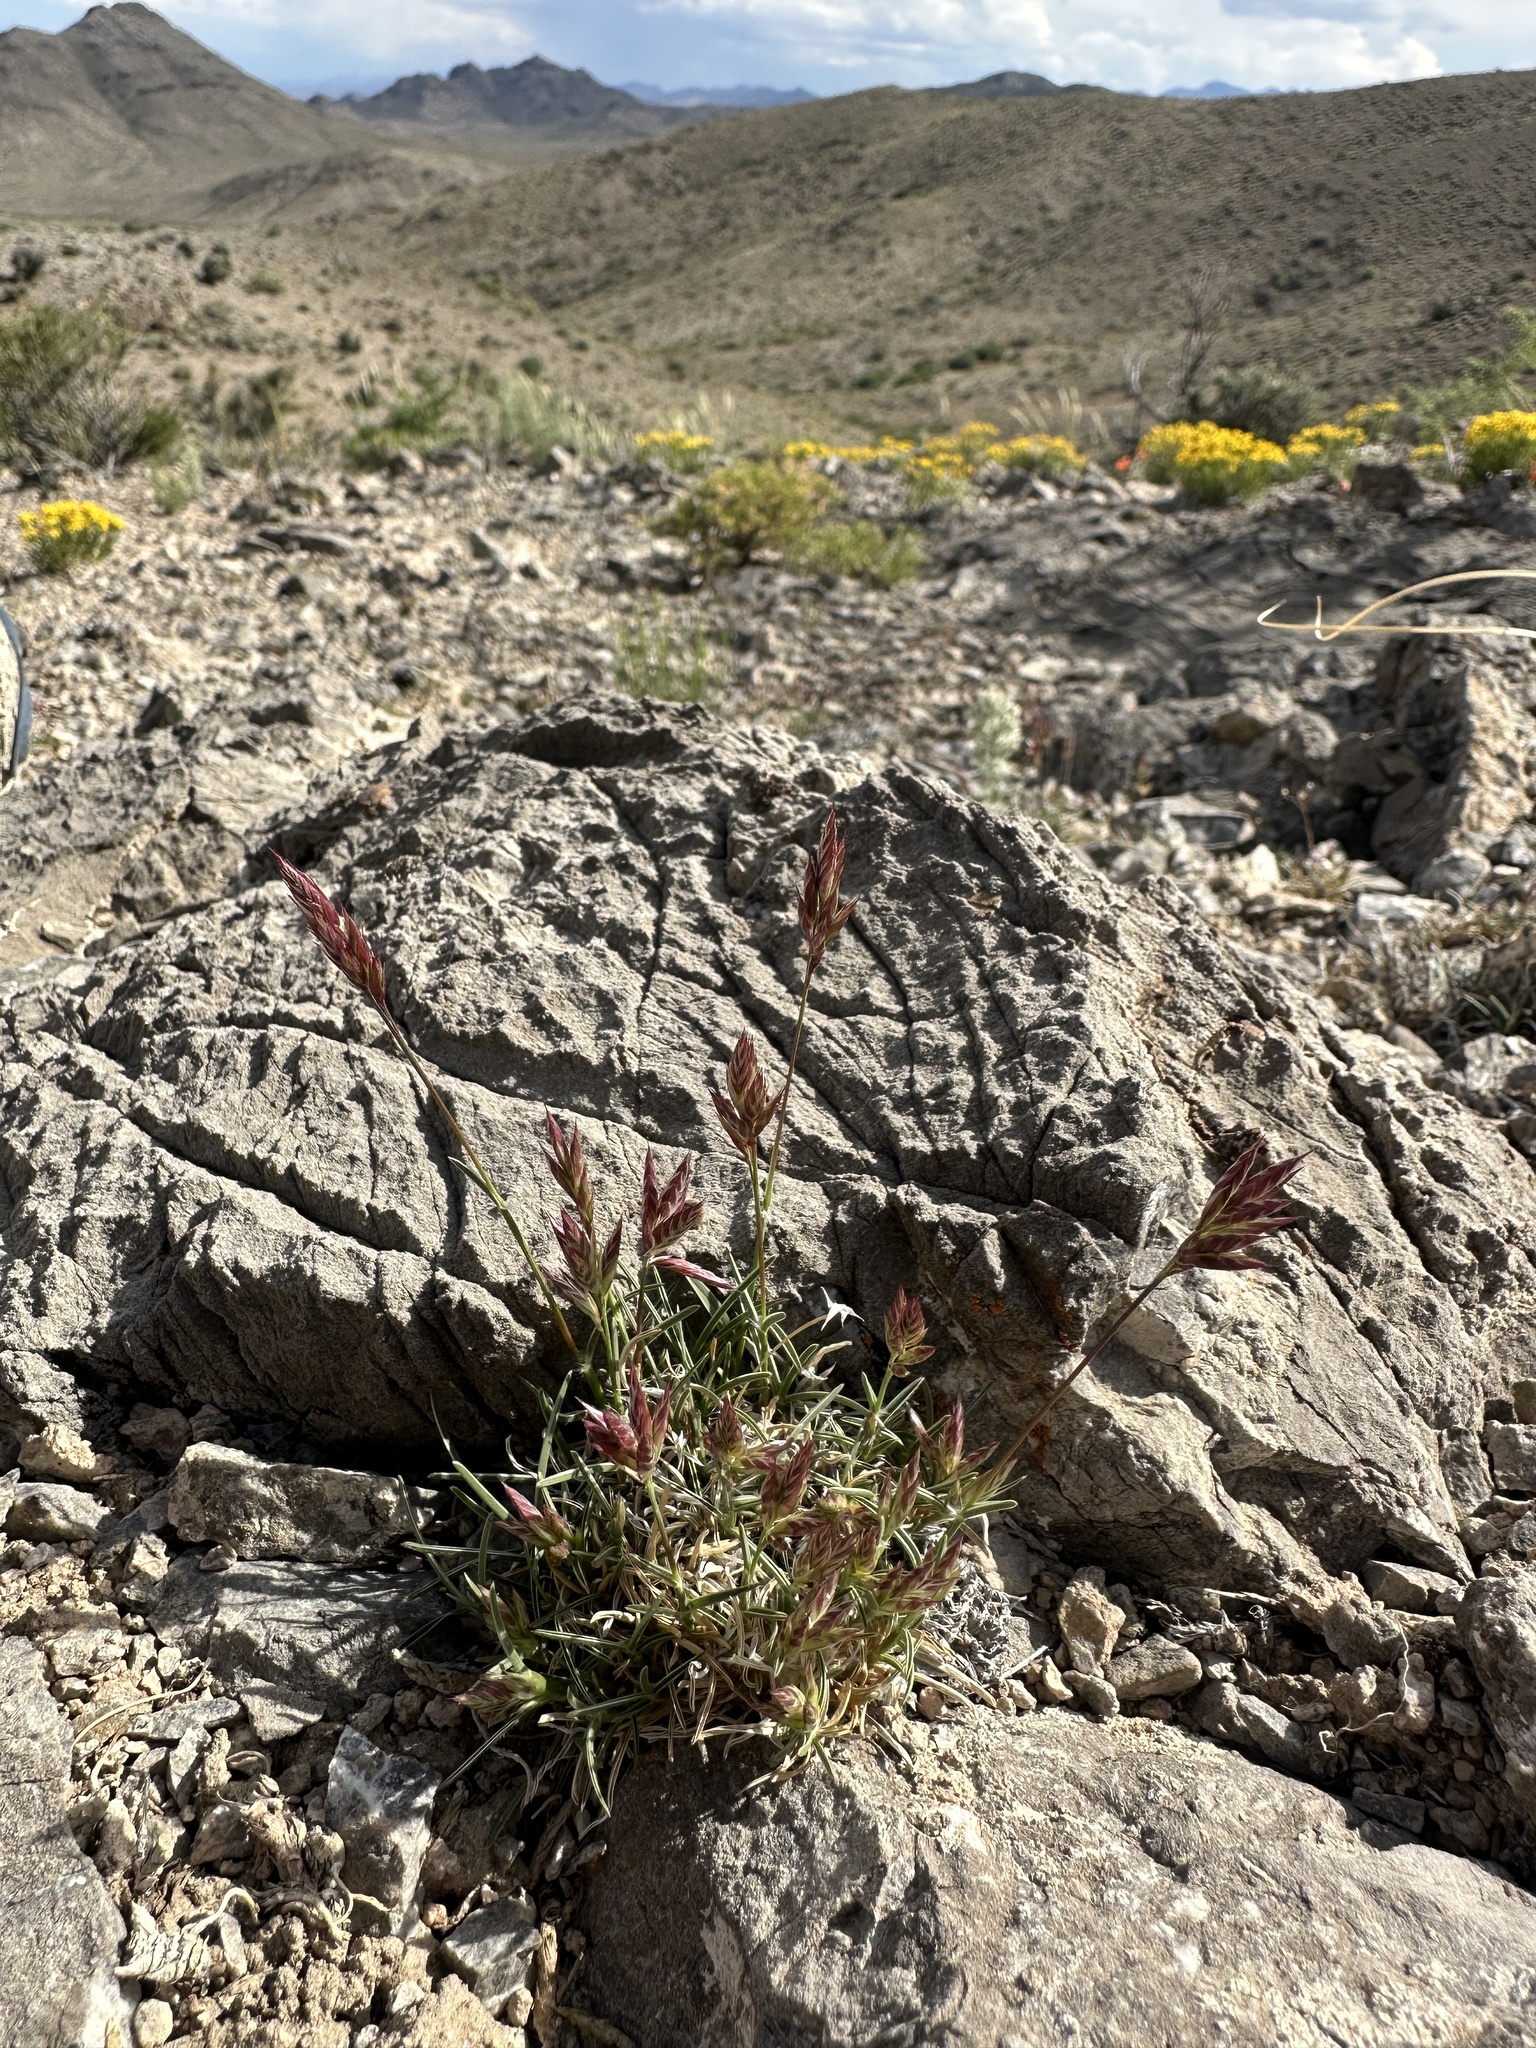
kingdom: Plantae
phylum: Tracheophyta
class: Liliopsida
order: Poales
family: Poaceae
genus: Erioneuron
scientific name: Erioneuron pilosum
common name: Hairy woolly grass
